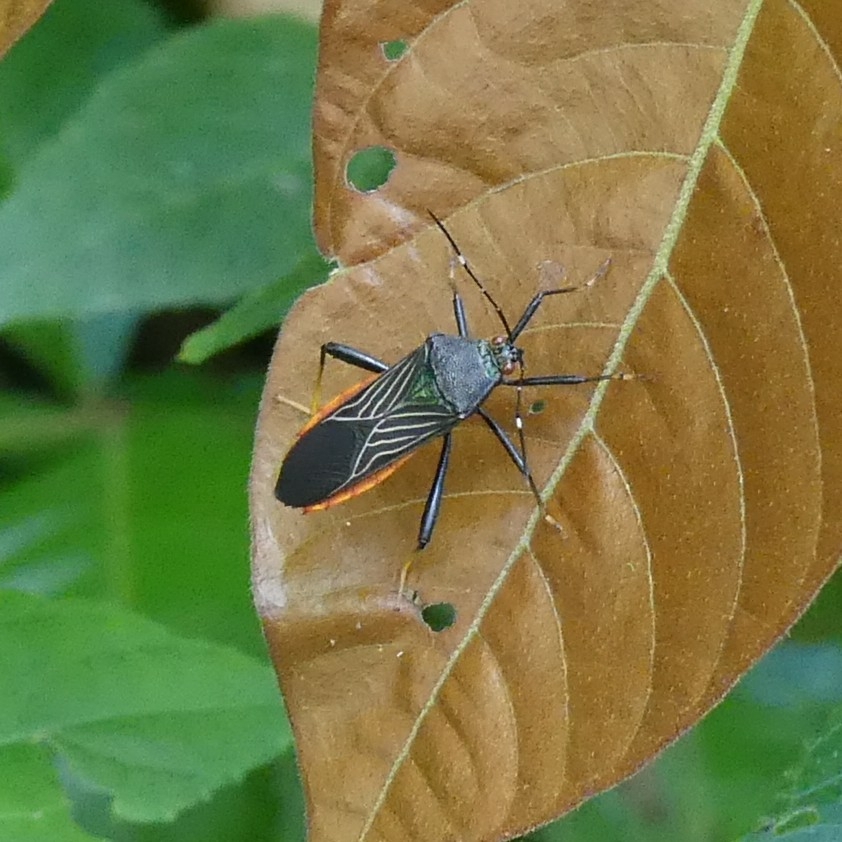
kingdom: Animalia
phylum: Arthropoda
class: Insecta
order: Hemiptera
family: Coreidae
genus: Nematopus
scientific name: Nematopus indus
